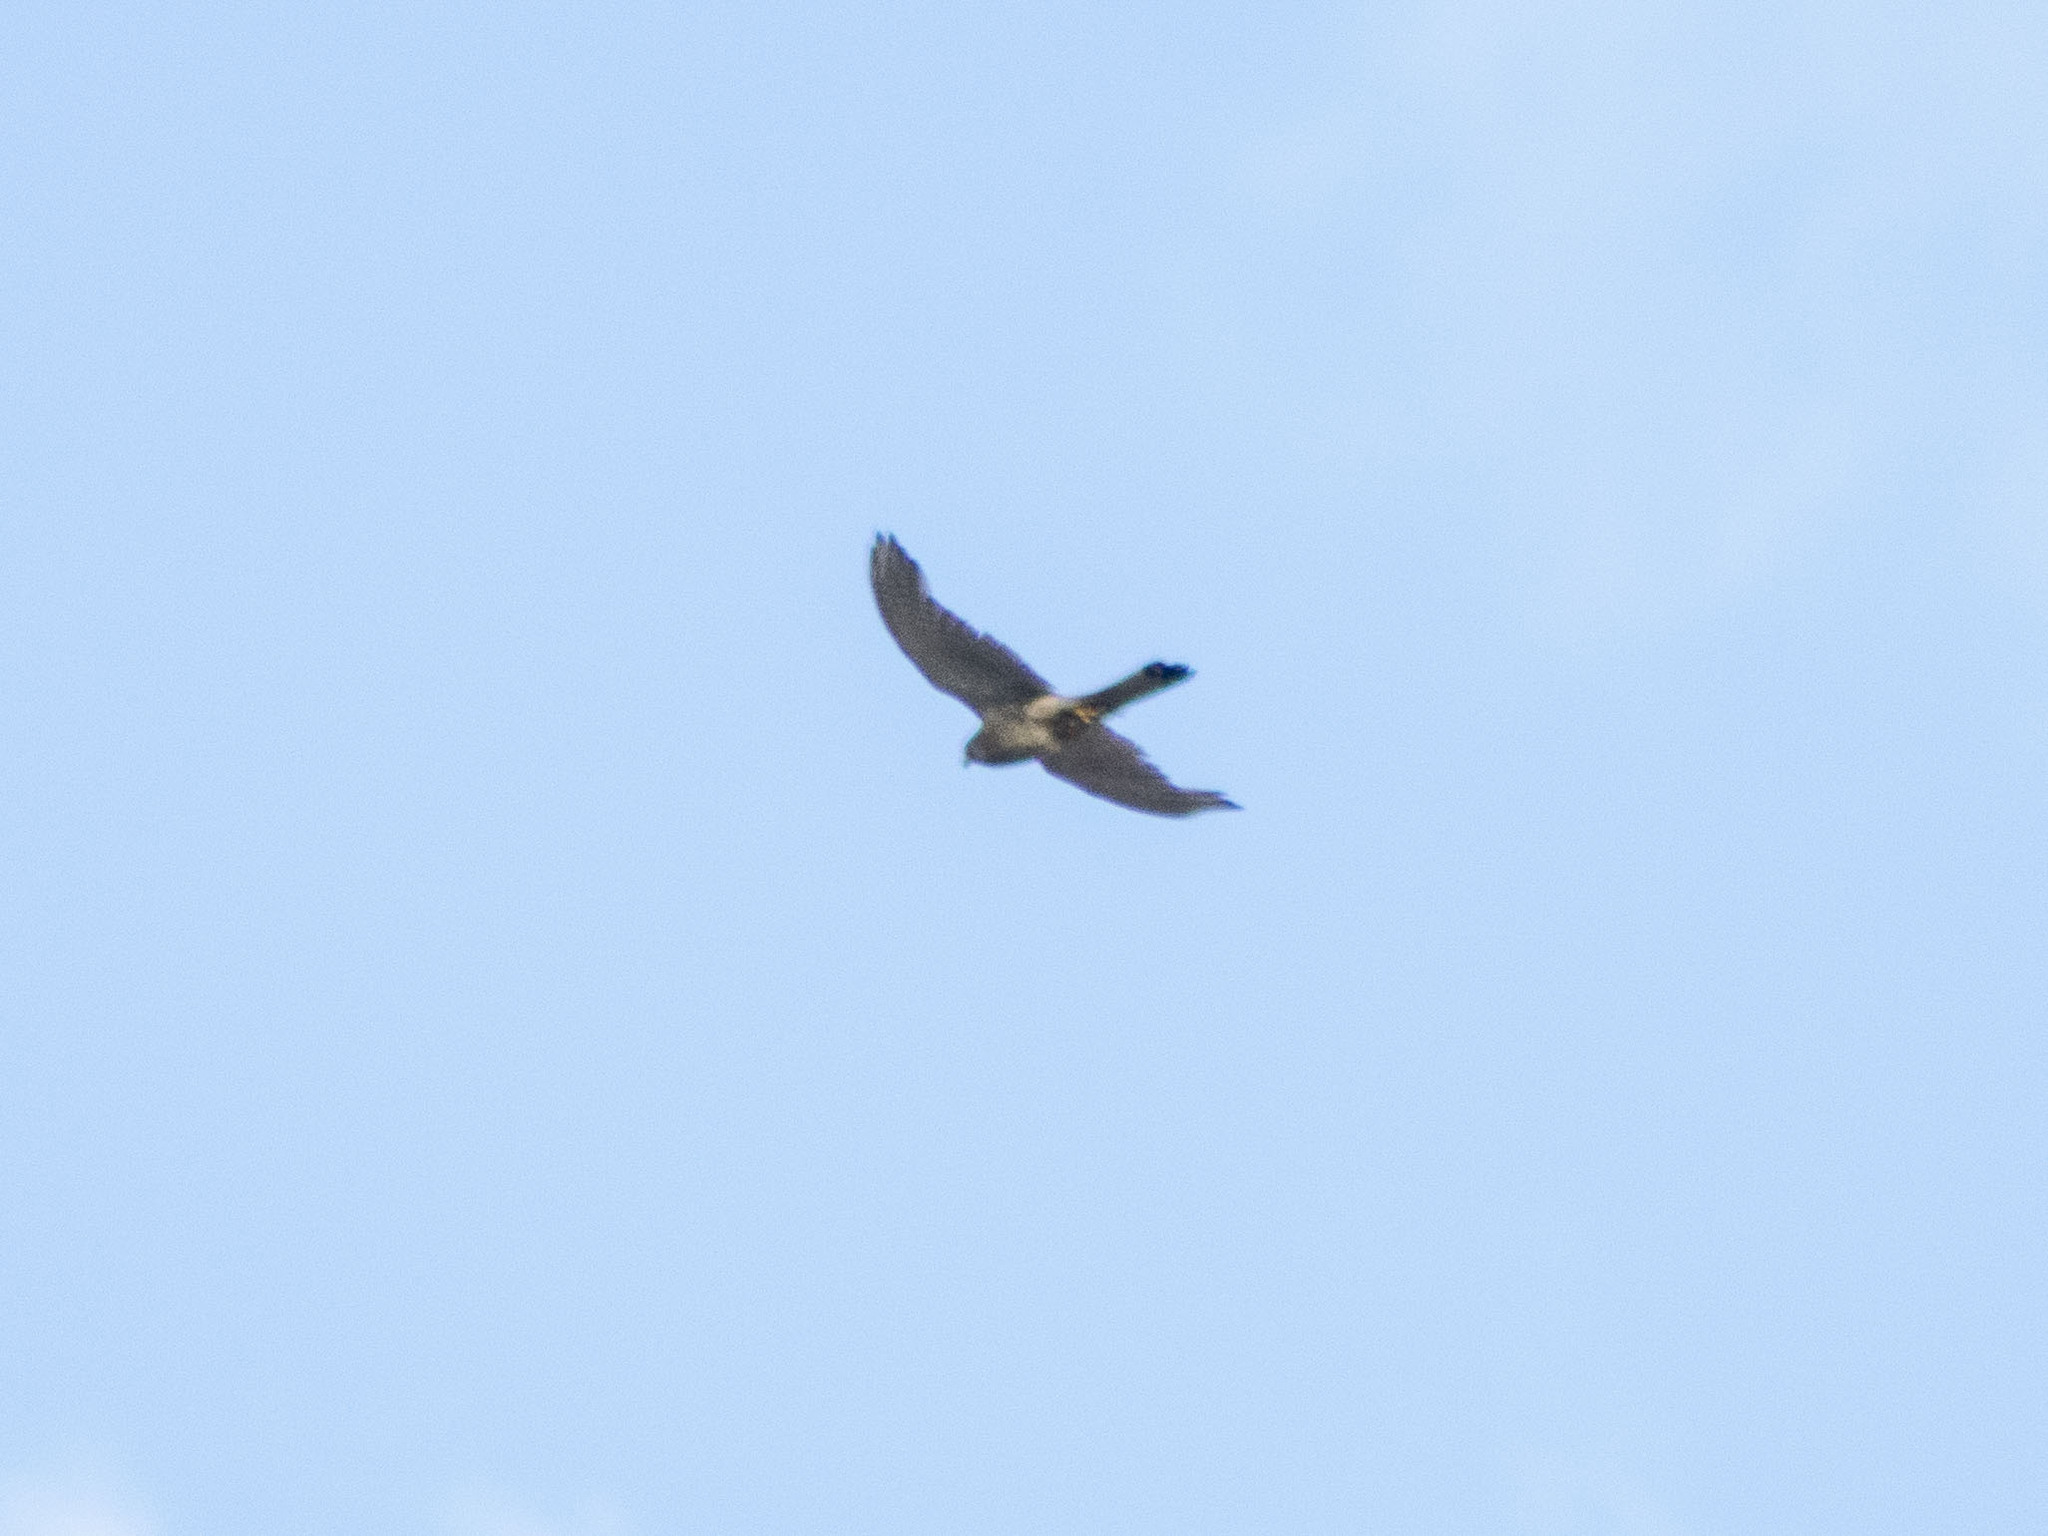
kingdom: Animalia
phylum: Chordata
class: Aves
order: Falconiformes
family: Falconidae
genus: Falco
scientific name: Falco tinnunculus
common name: Common kestrel
